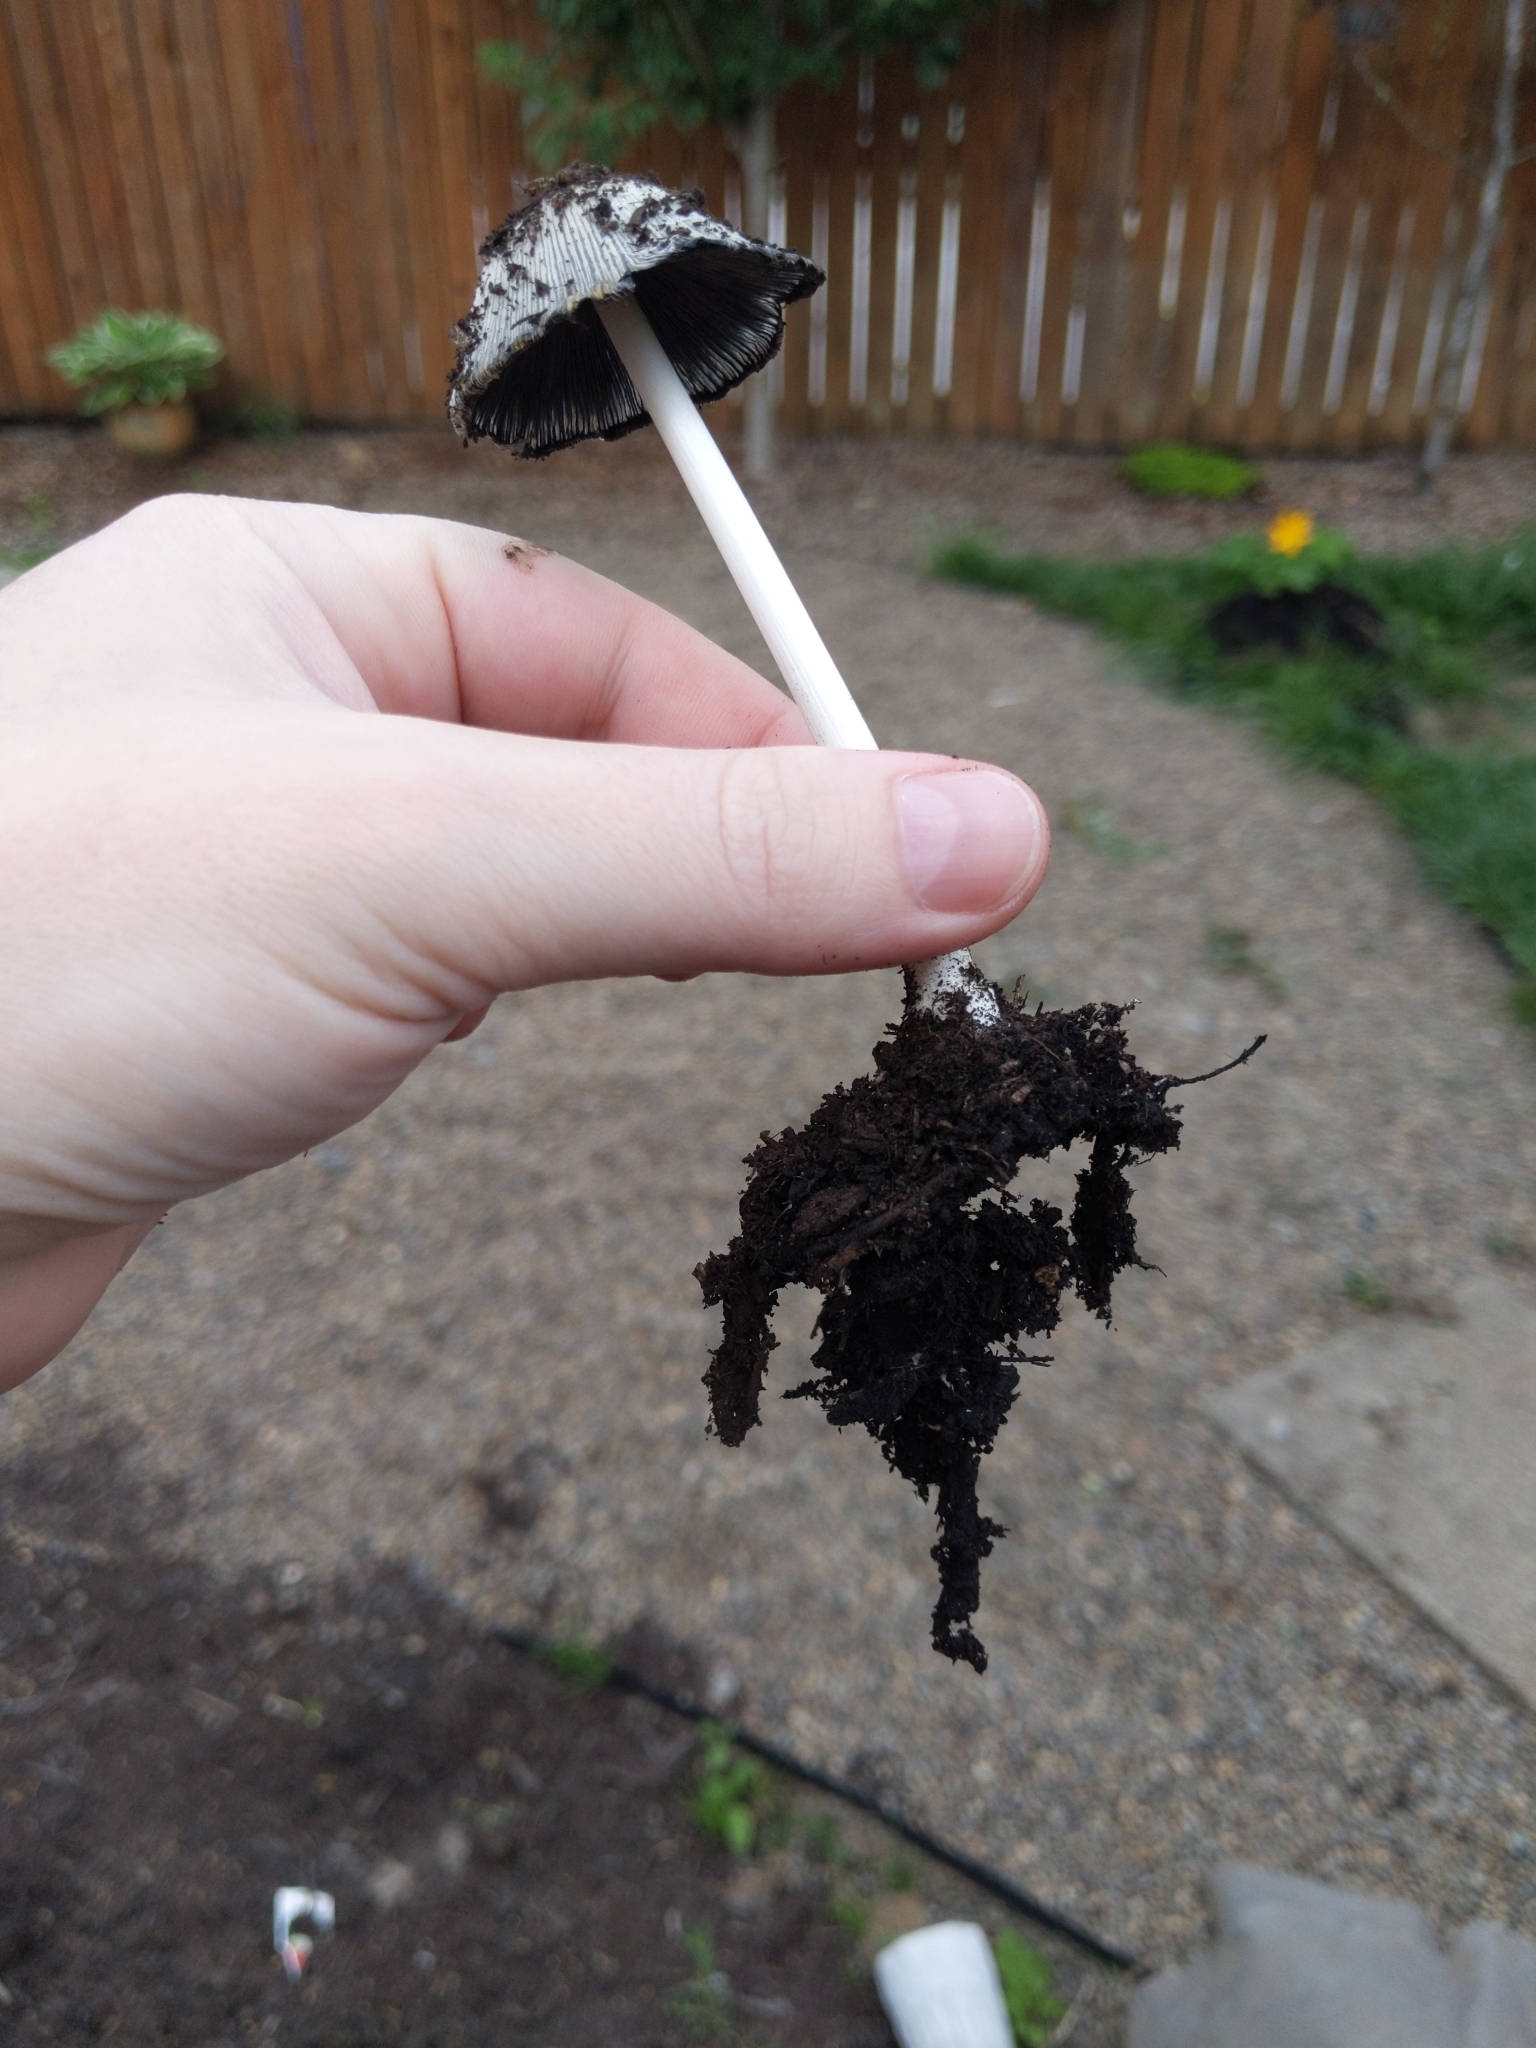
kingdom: Fungi
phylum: Basidiomycota
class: Agaricomycetes
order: Agaricales
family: Psathyrellaceae
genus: Coprinopsis
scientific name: Coprinopsis lagopus
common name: Hare'sfoot inkcap
